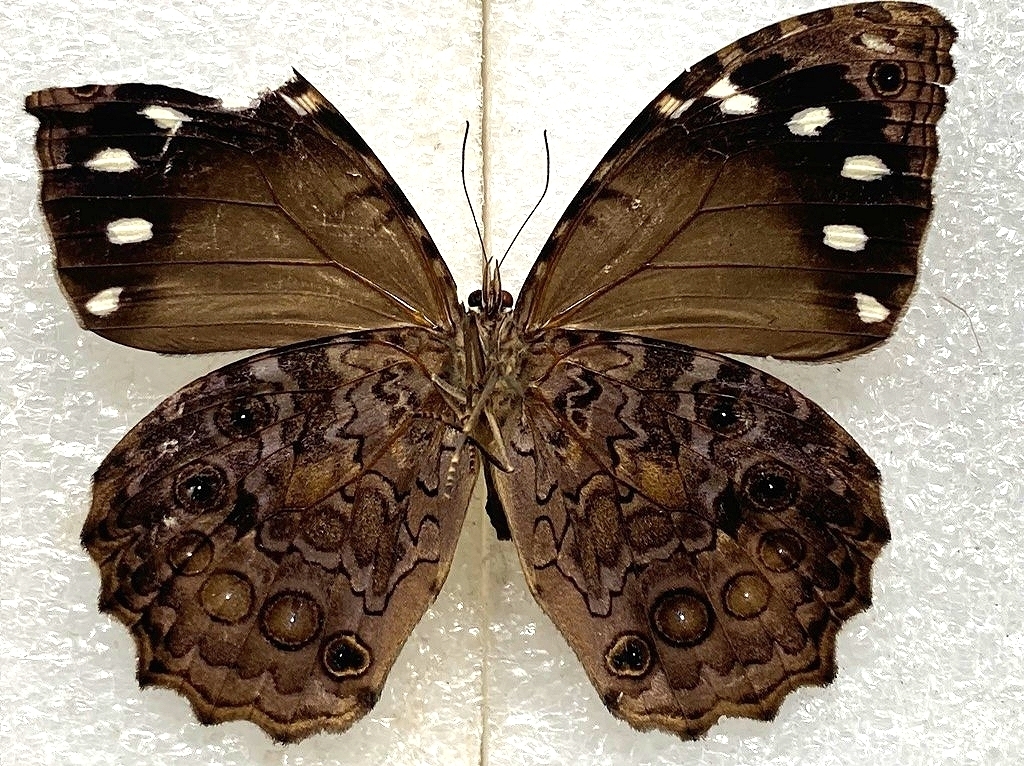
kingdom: Animalia
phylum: Arthropoda
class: Insecta
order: Lepidoptera
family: Nymphalidae
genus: Manataria
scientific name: Manataria maculata
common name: White-spotted satyr
